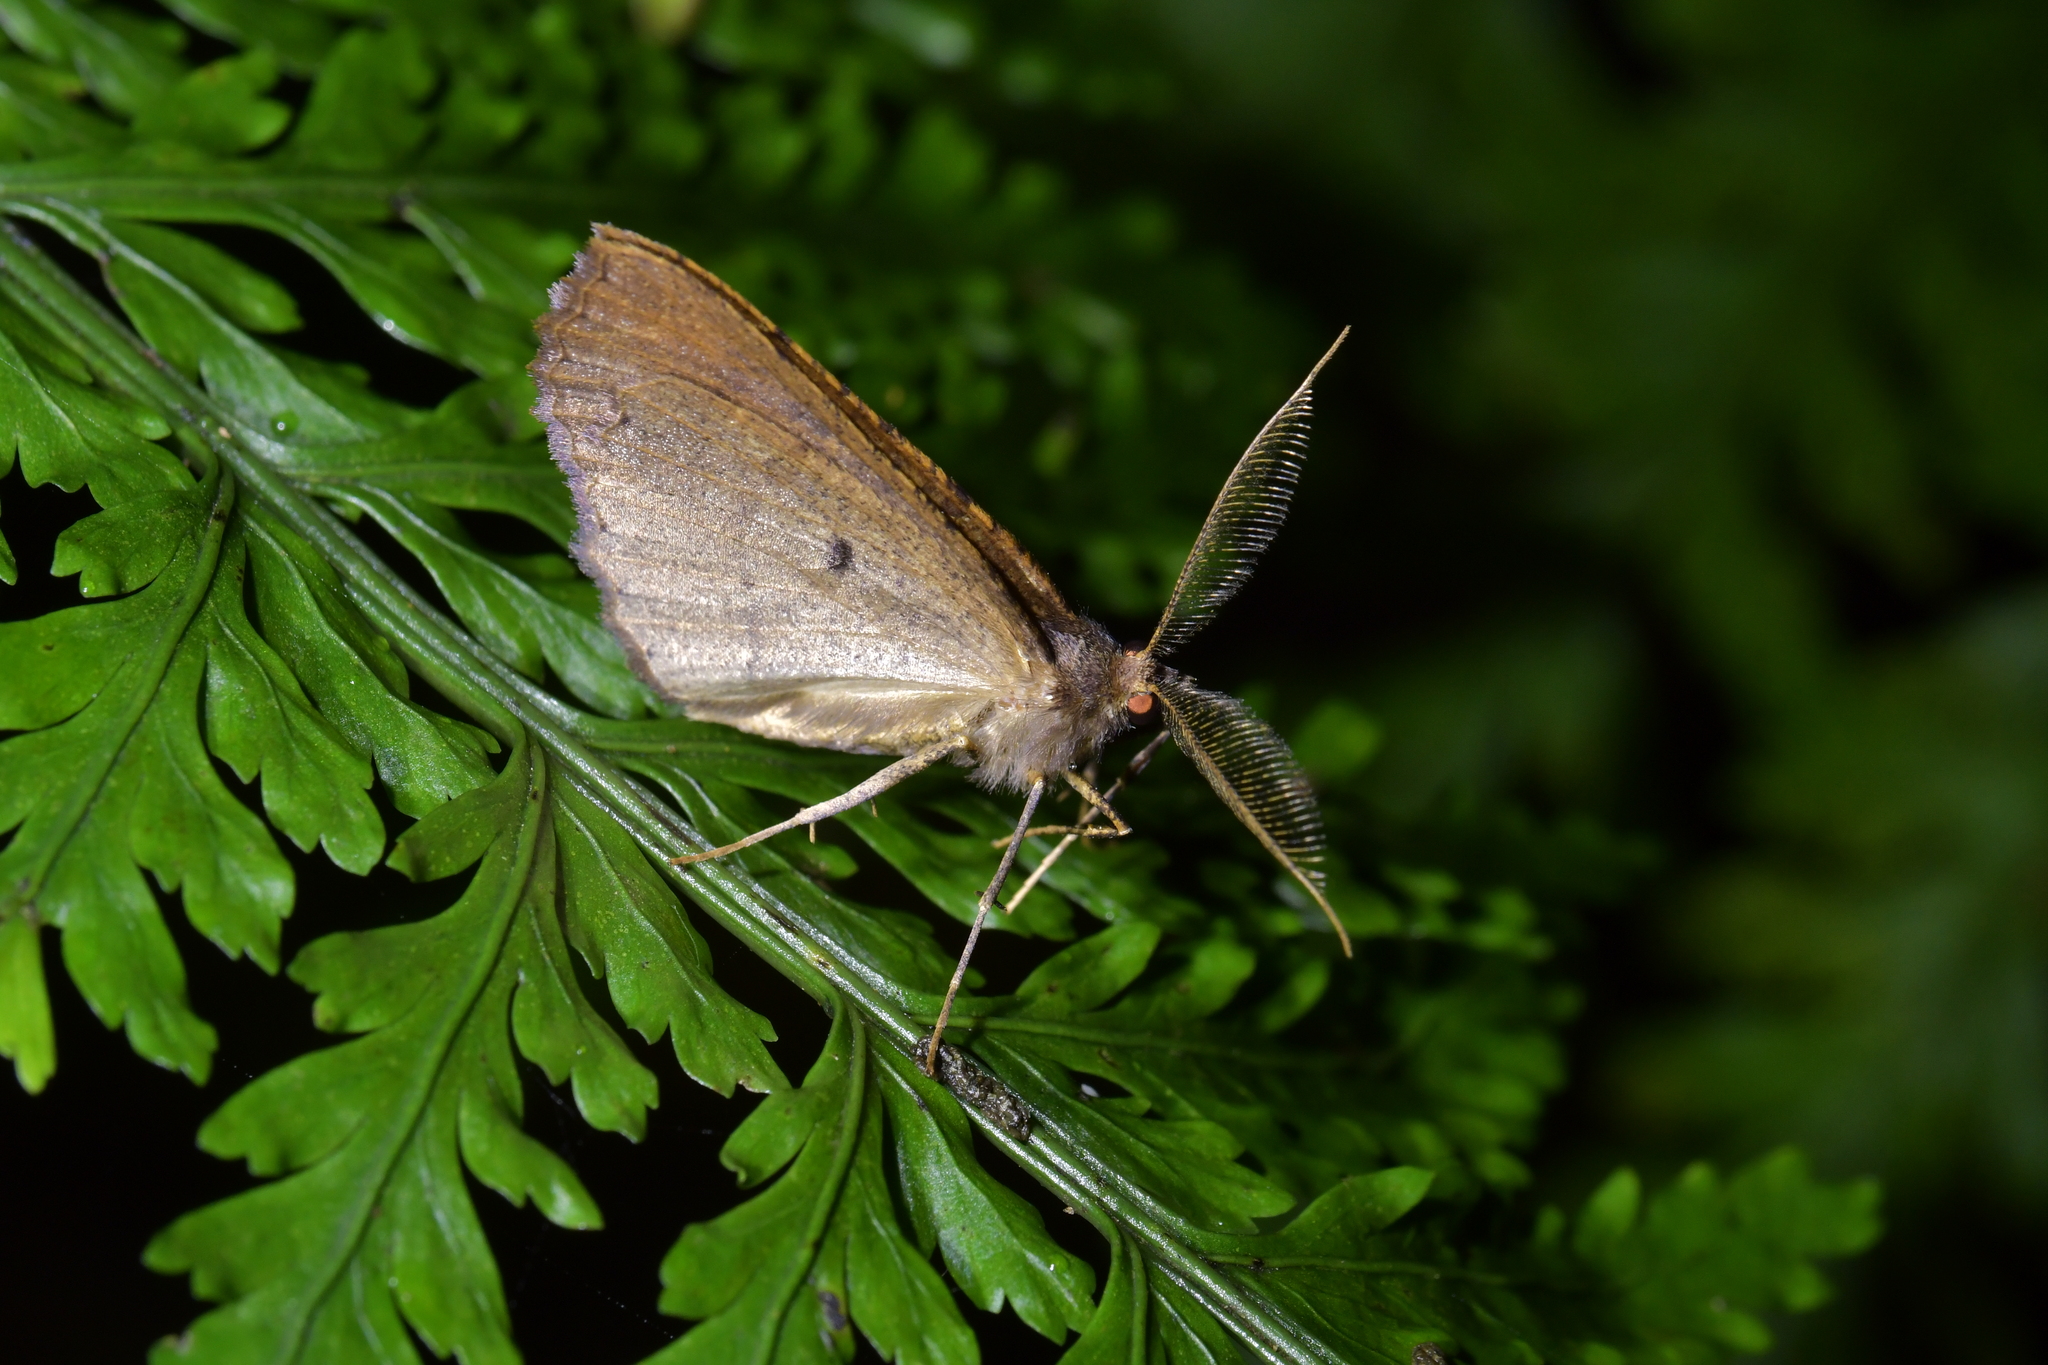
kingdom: Animalia
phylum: Arthropoda
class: Insecta
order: Lepidoptera
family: Geometridae
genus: Cleora
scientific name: Cleora scriptaria
